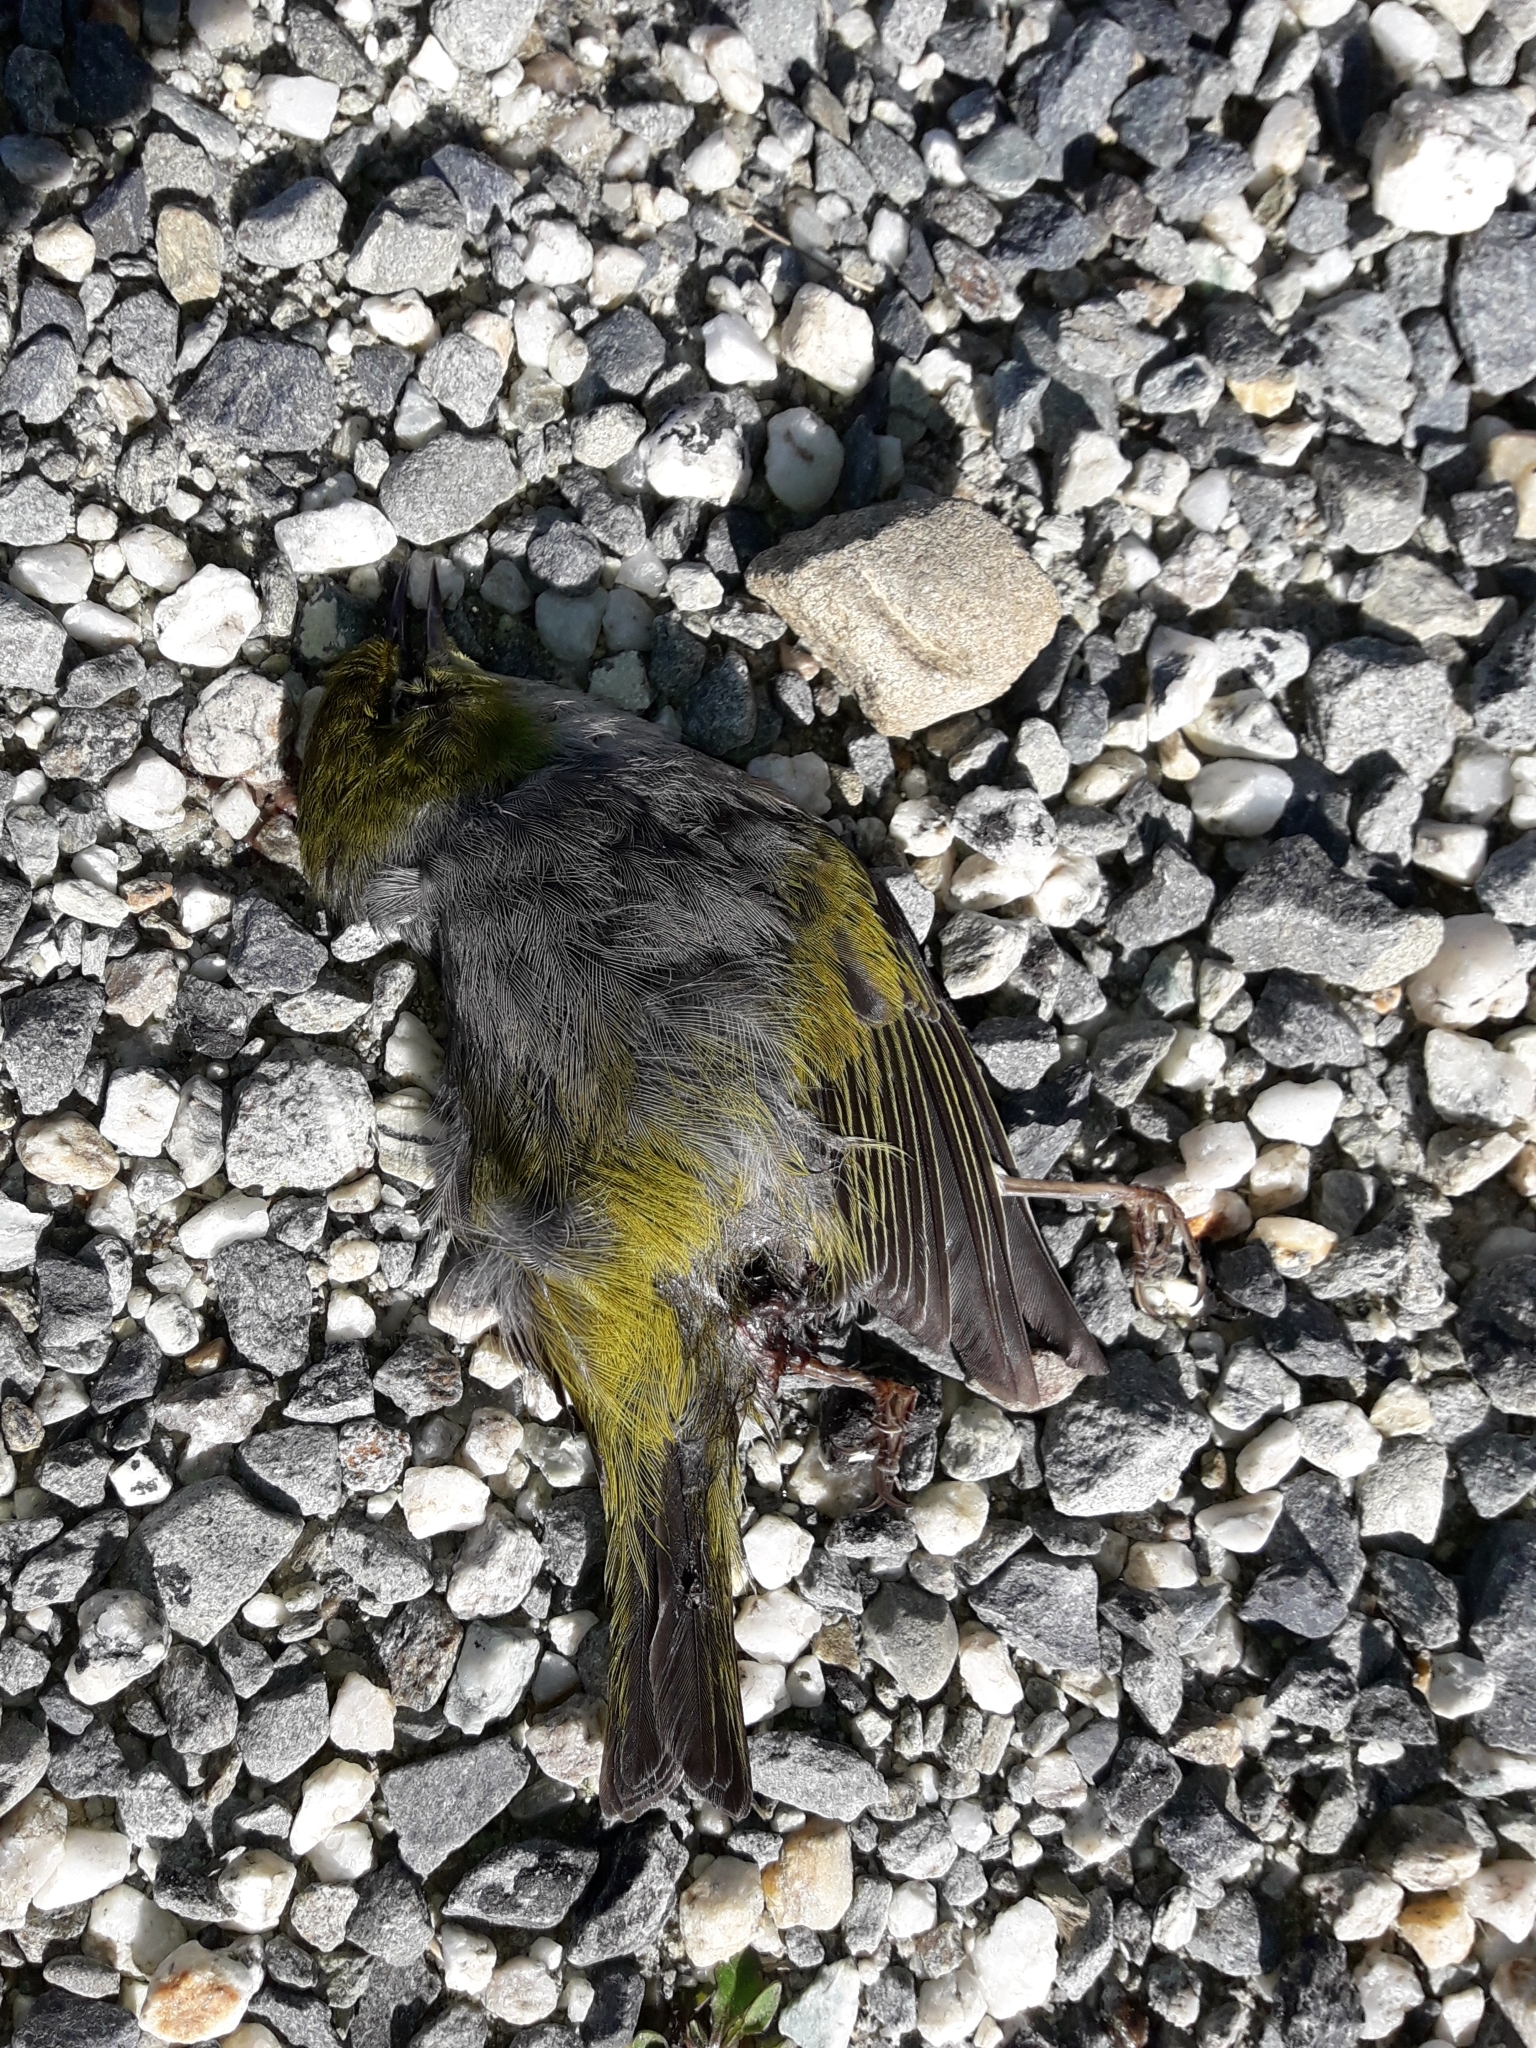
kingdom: Animalia
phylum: Chordata
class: Aves
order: Passeriformes
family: Zosteropidae
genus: Zosterops
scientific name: Zosterops lateralis
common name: Silvereye
